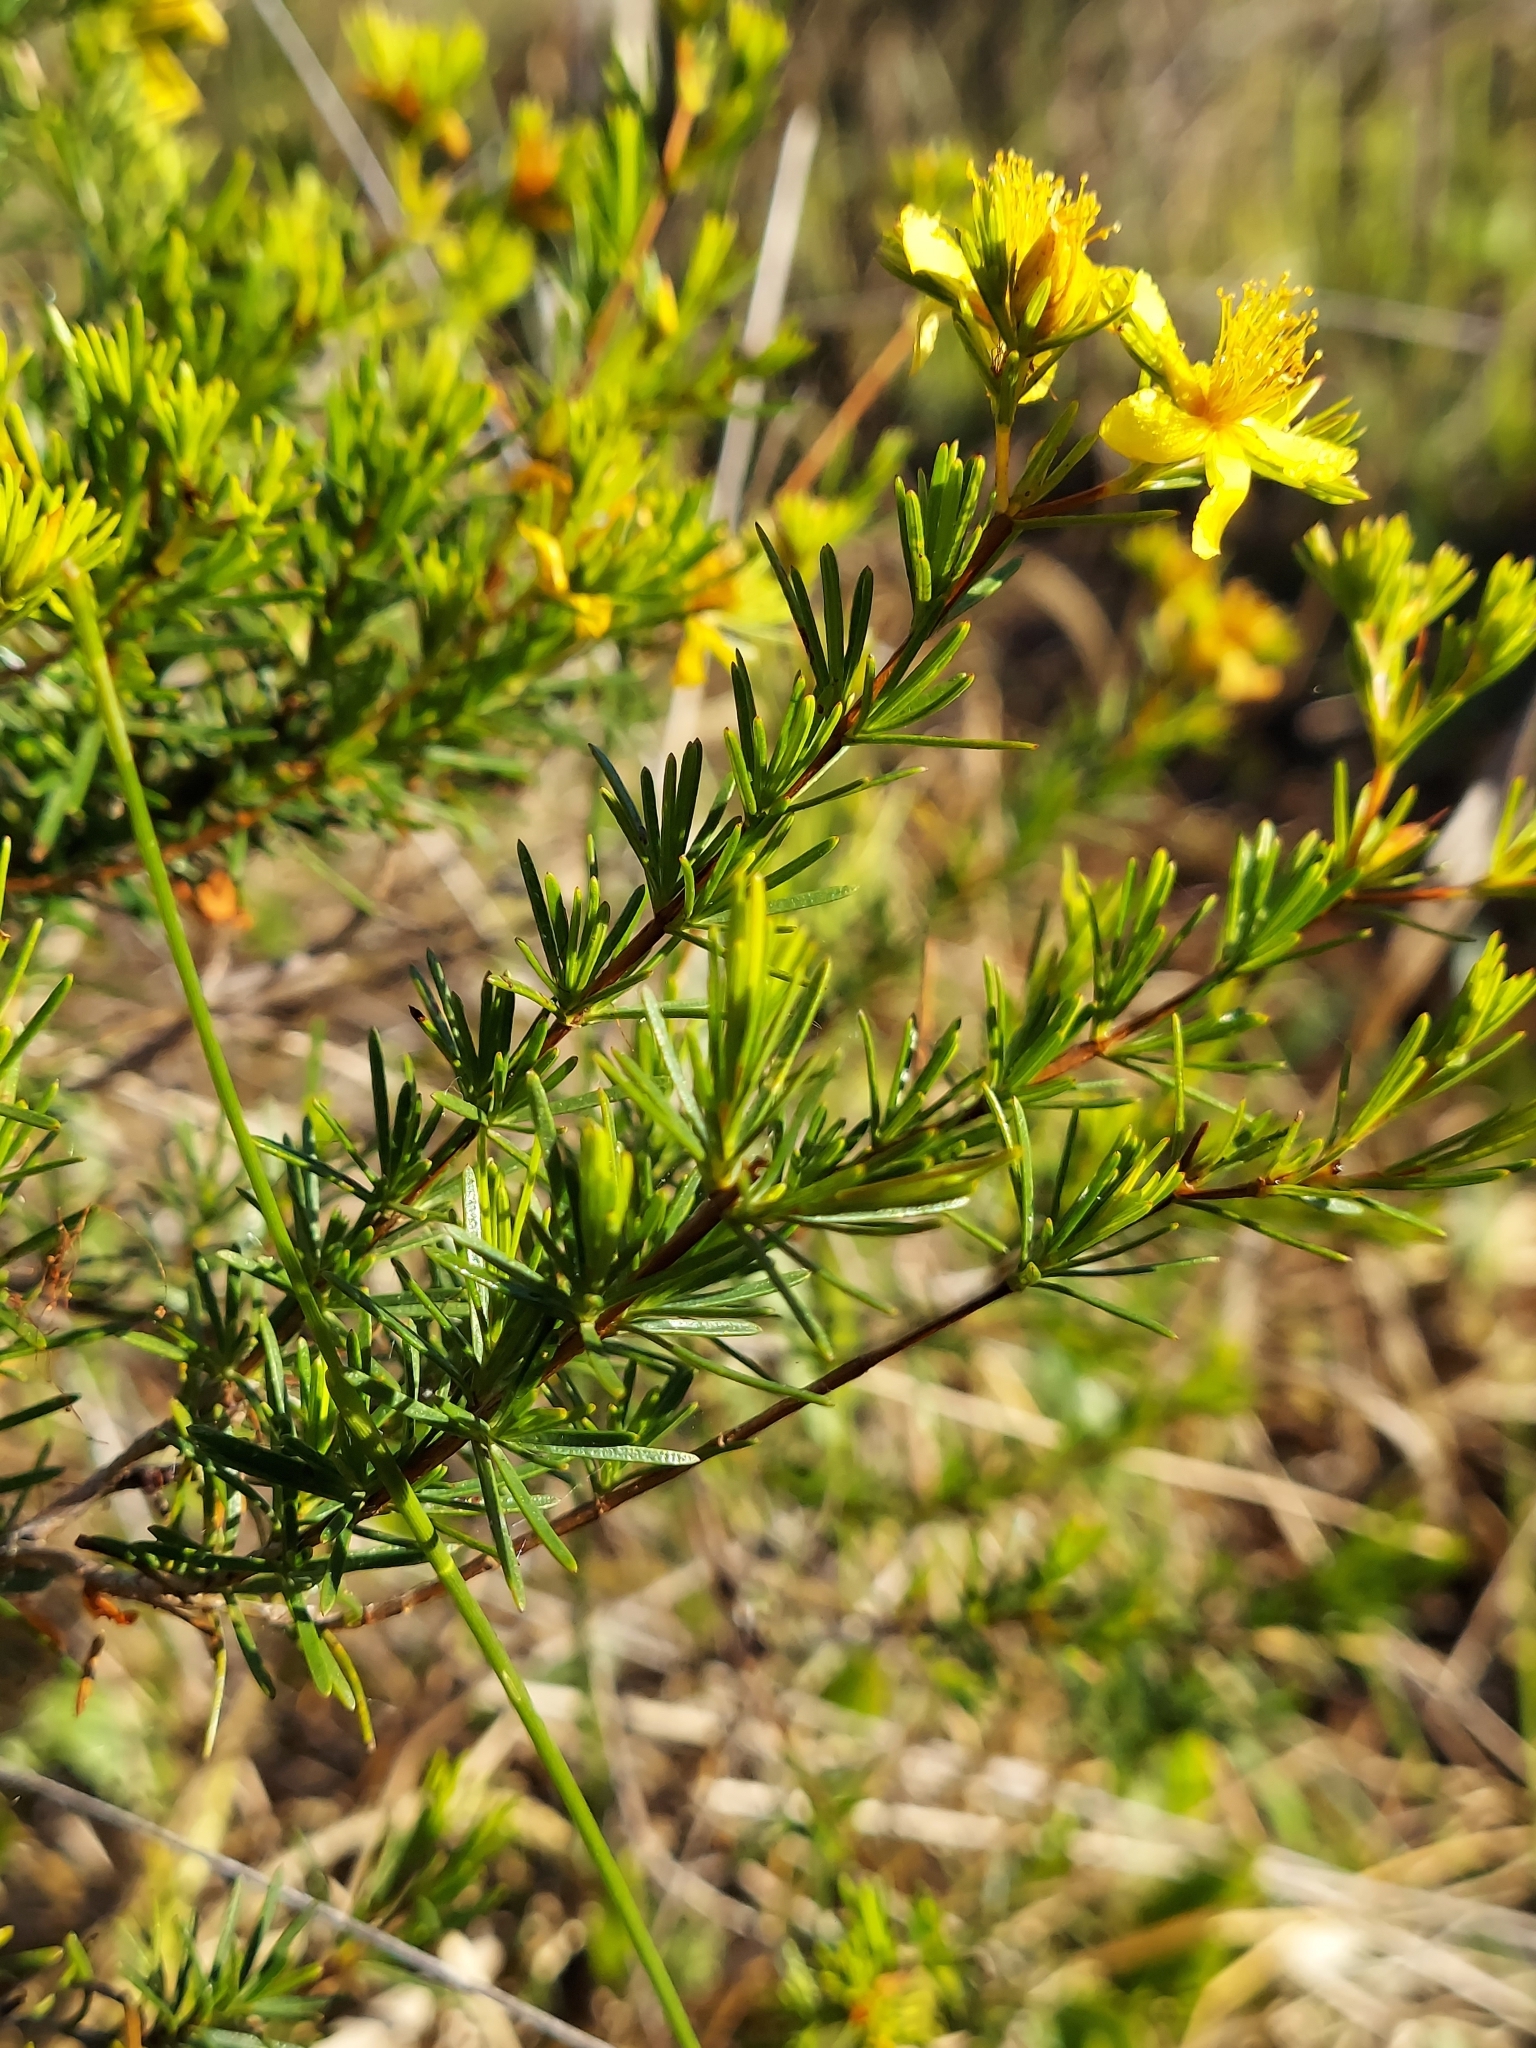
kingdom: Plantae
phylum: Tracheophyta
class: Magnoliopsida
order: Malpighiales
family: Hypericaceae
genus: Hypericum
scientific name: Hypericum fasciculatum
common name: Peelbark st. john's wort
